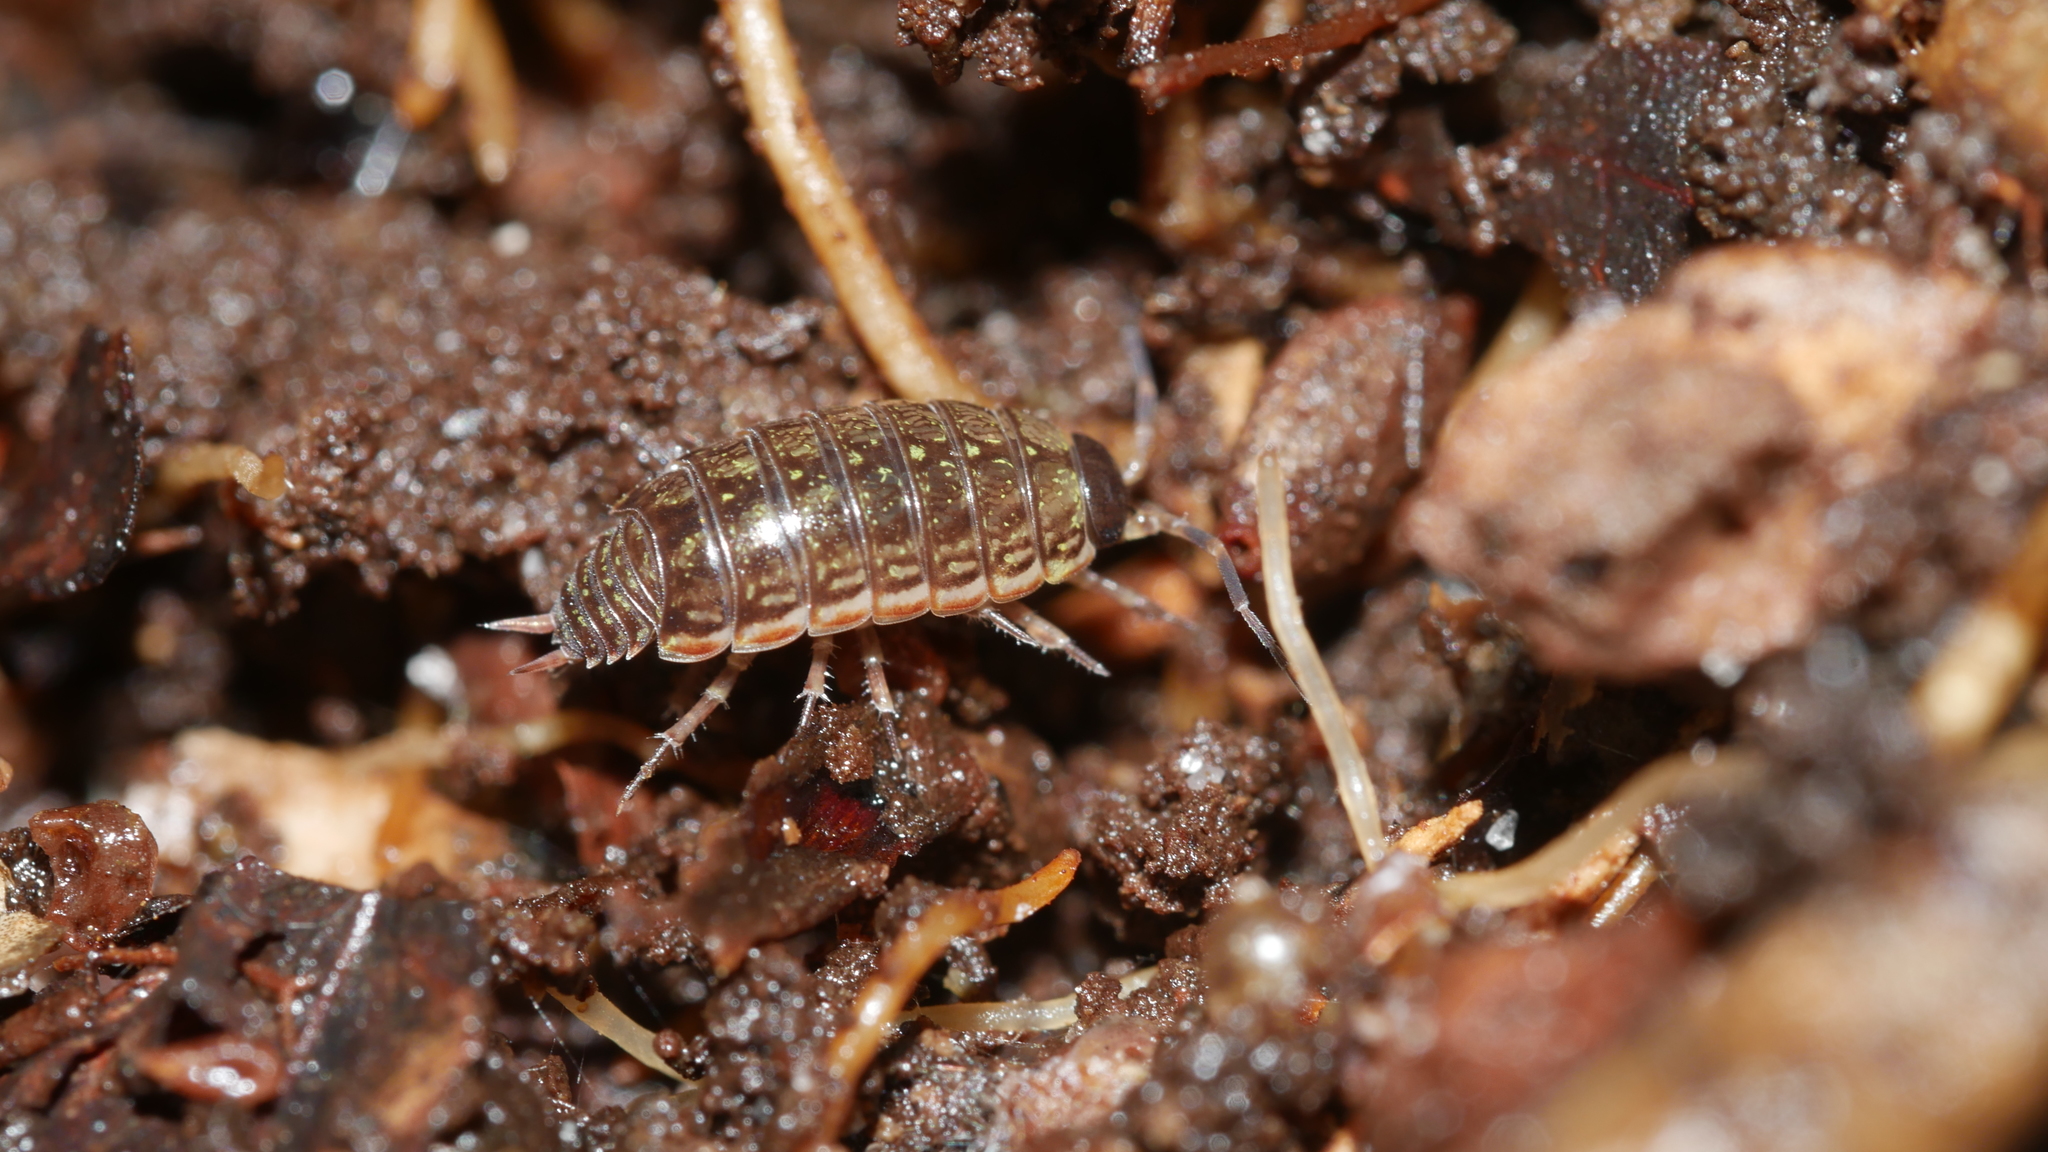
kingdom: Animalia
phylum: Arthropoda
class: Malacostraca
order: Isopoda
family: Philosciidae
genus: Philoscia
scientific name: Philoscia muscorum
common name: Common striped woodlouse
